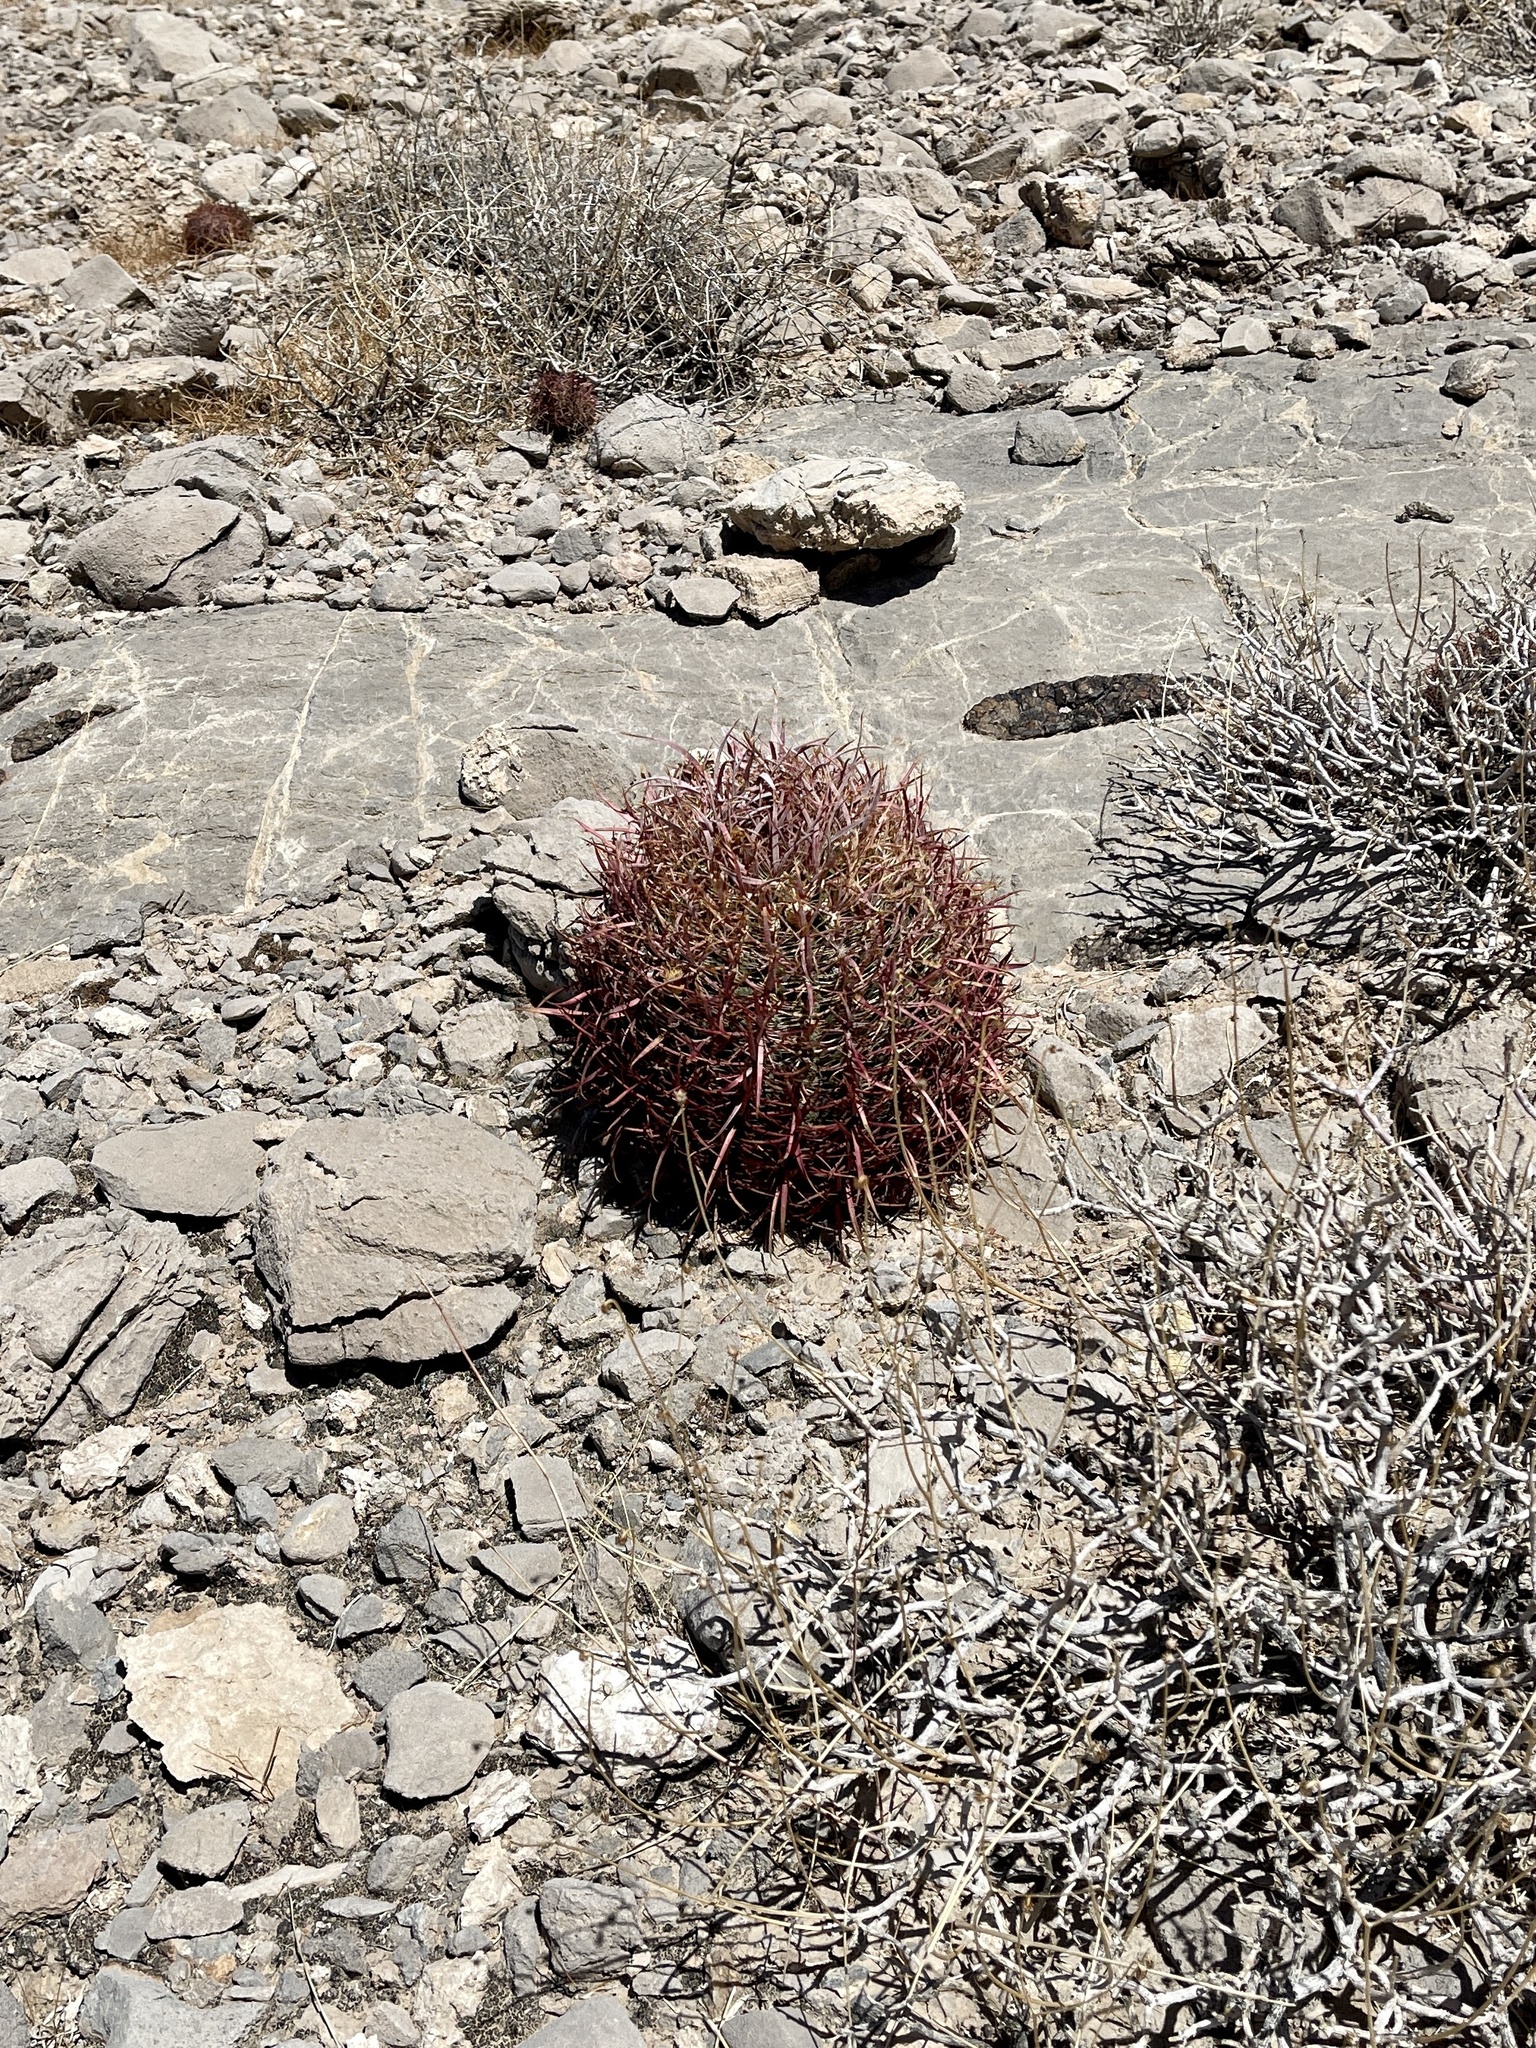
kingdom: Plantae
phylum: Tracheophyta
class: Magnoliopsida
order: Caryophyllales
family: Cactaceae
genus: Ferocactus
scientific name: Ferocactus cylindraceus
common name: California barrel cactus
